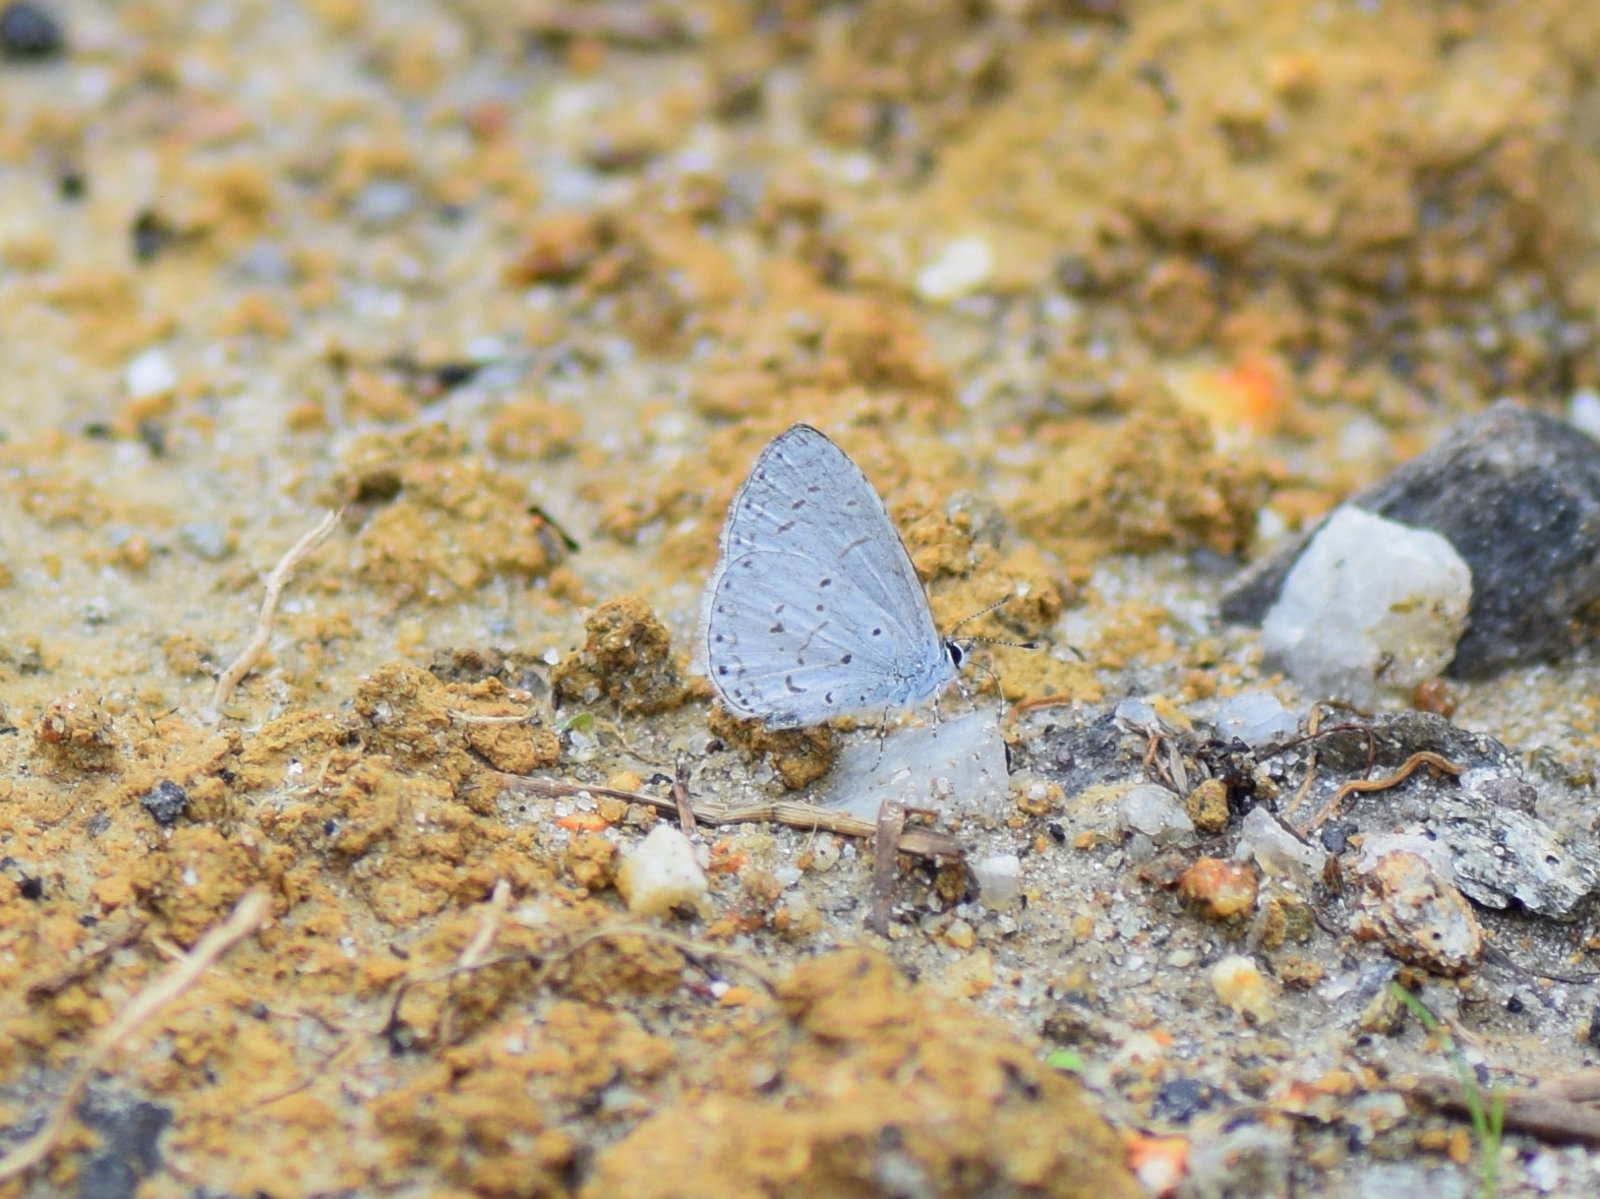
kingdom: Animalia
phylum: Arthropoda
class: Insecta
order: Lepidoptera
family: Lycaenidae
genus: Udara
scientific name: Udara dilectus
